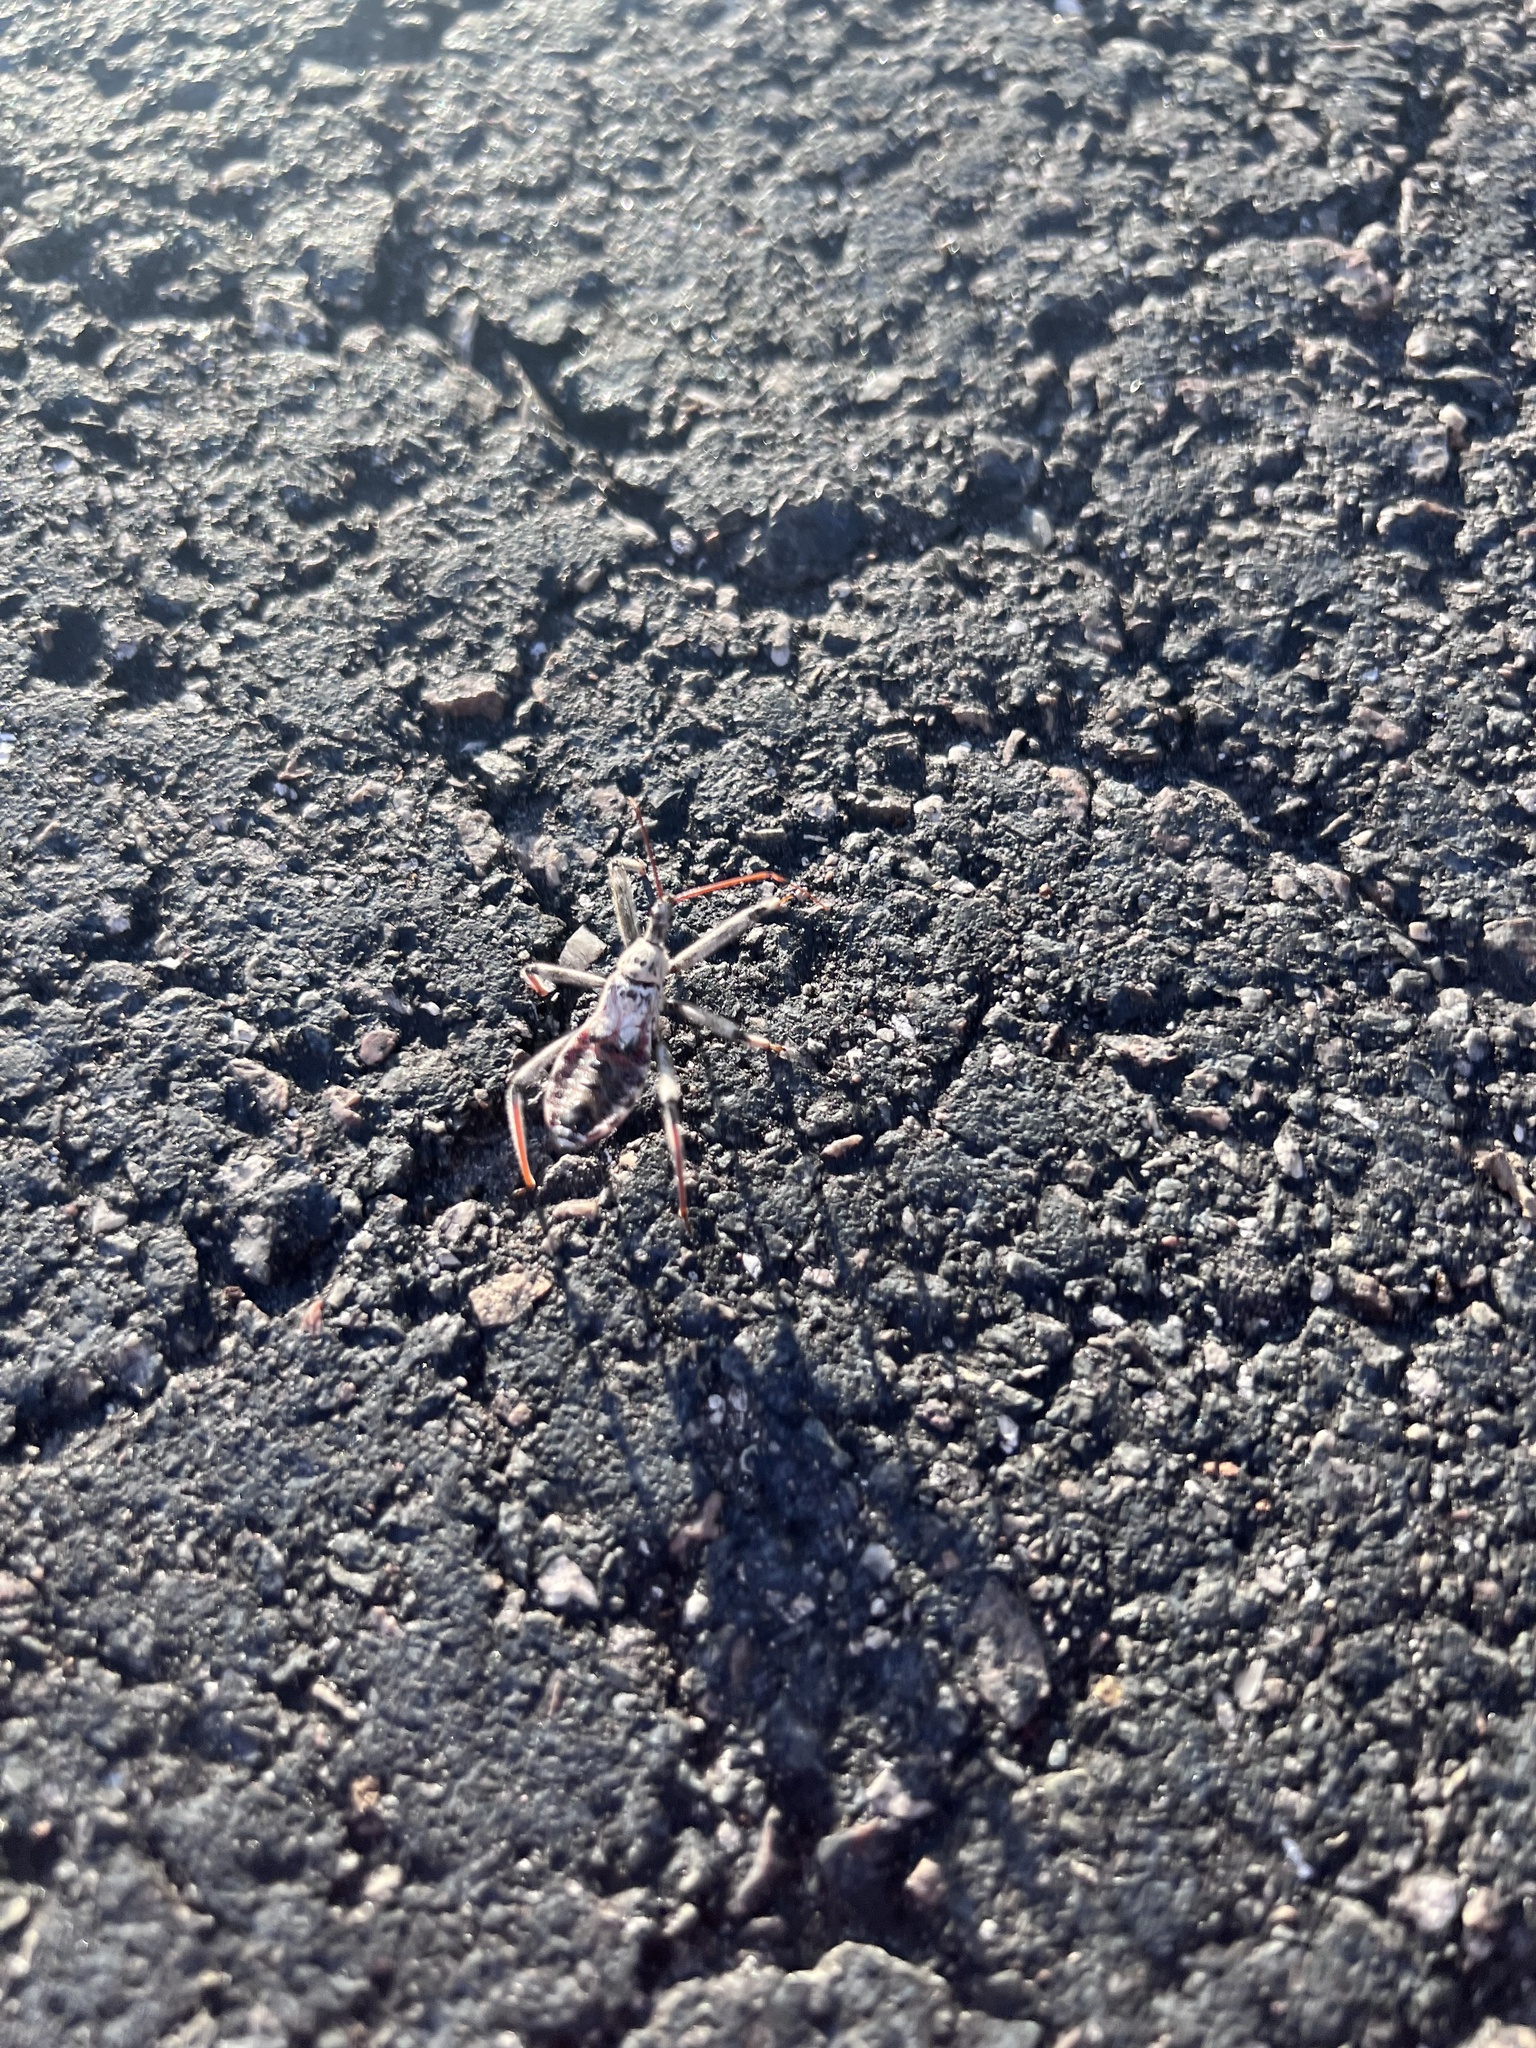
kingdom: Animalia
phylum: Arthropoda
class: Insecta
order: Hemiptera
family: Reduviidae
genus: Arilus
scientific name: Arilus cristatus
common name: North american wheel bug
